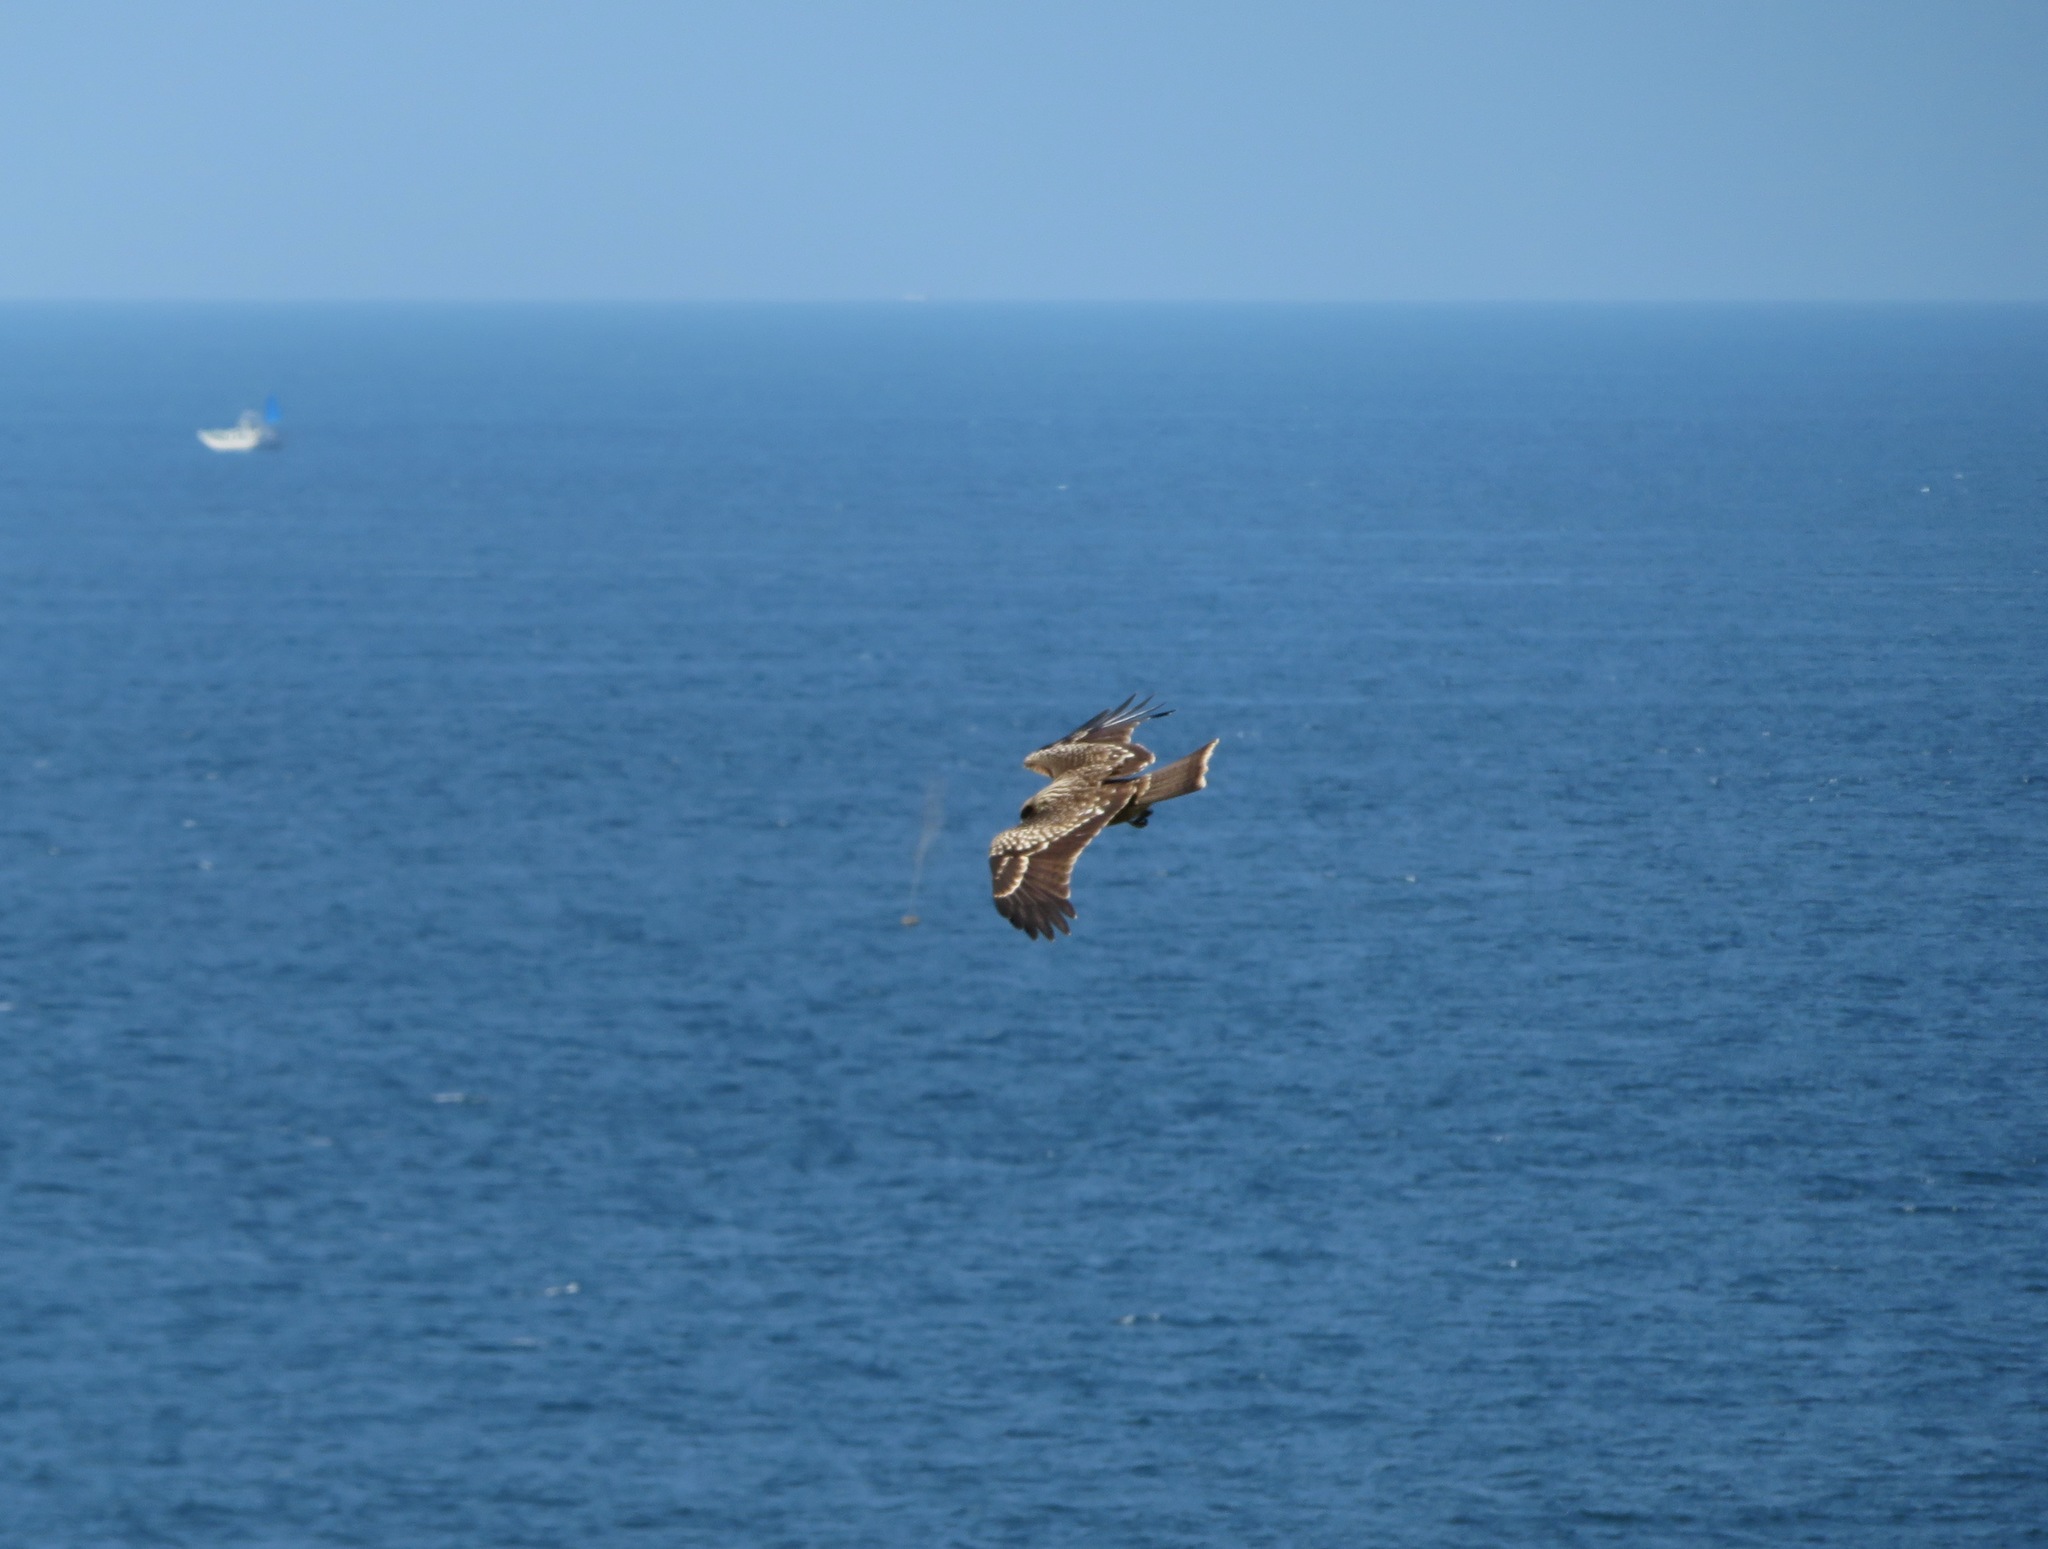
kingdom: Animalia
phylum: Chordata
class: Aves
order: Accipitriformes
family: Accipitridae
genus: Milvus
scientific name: Milvus migrans
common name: Black kite
